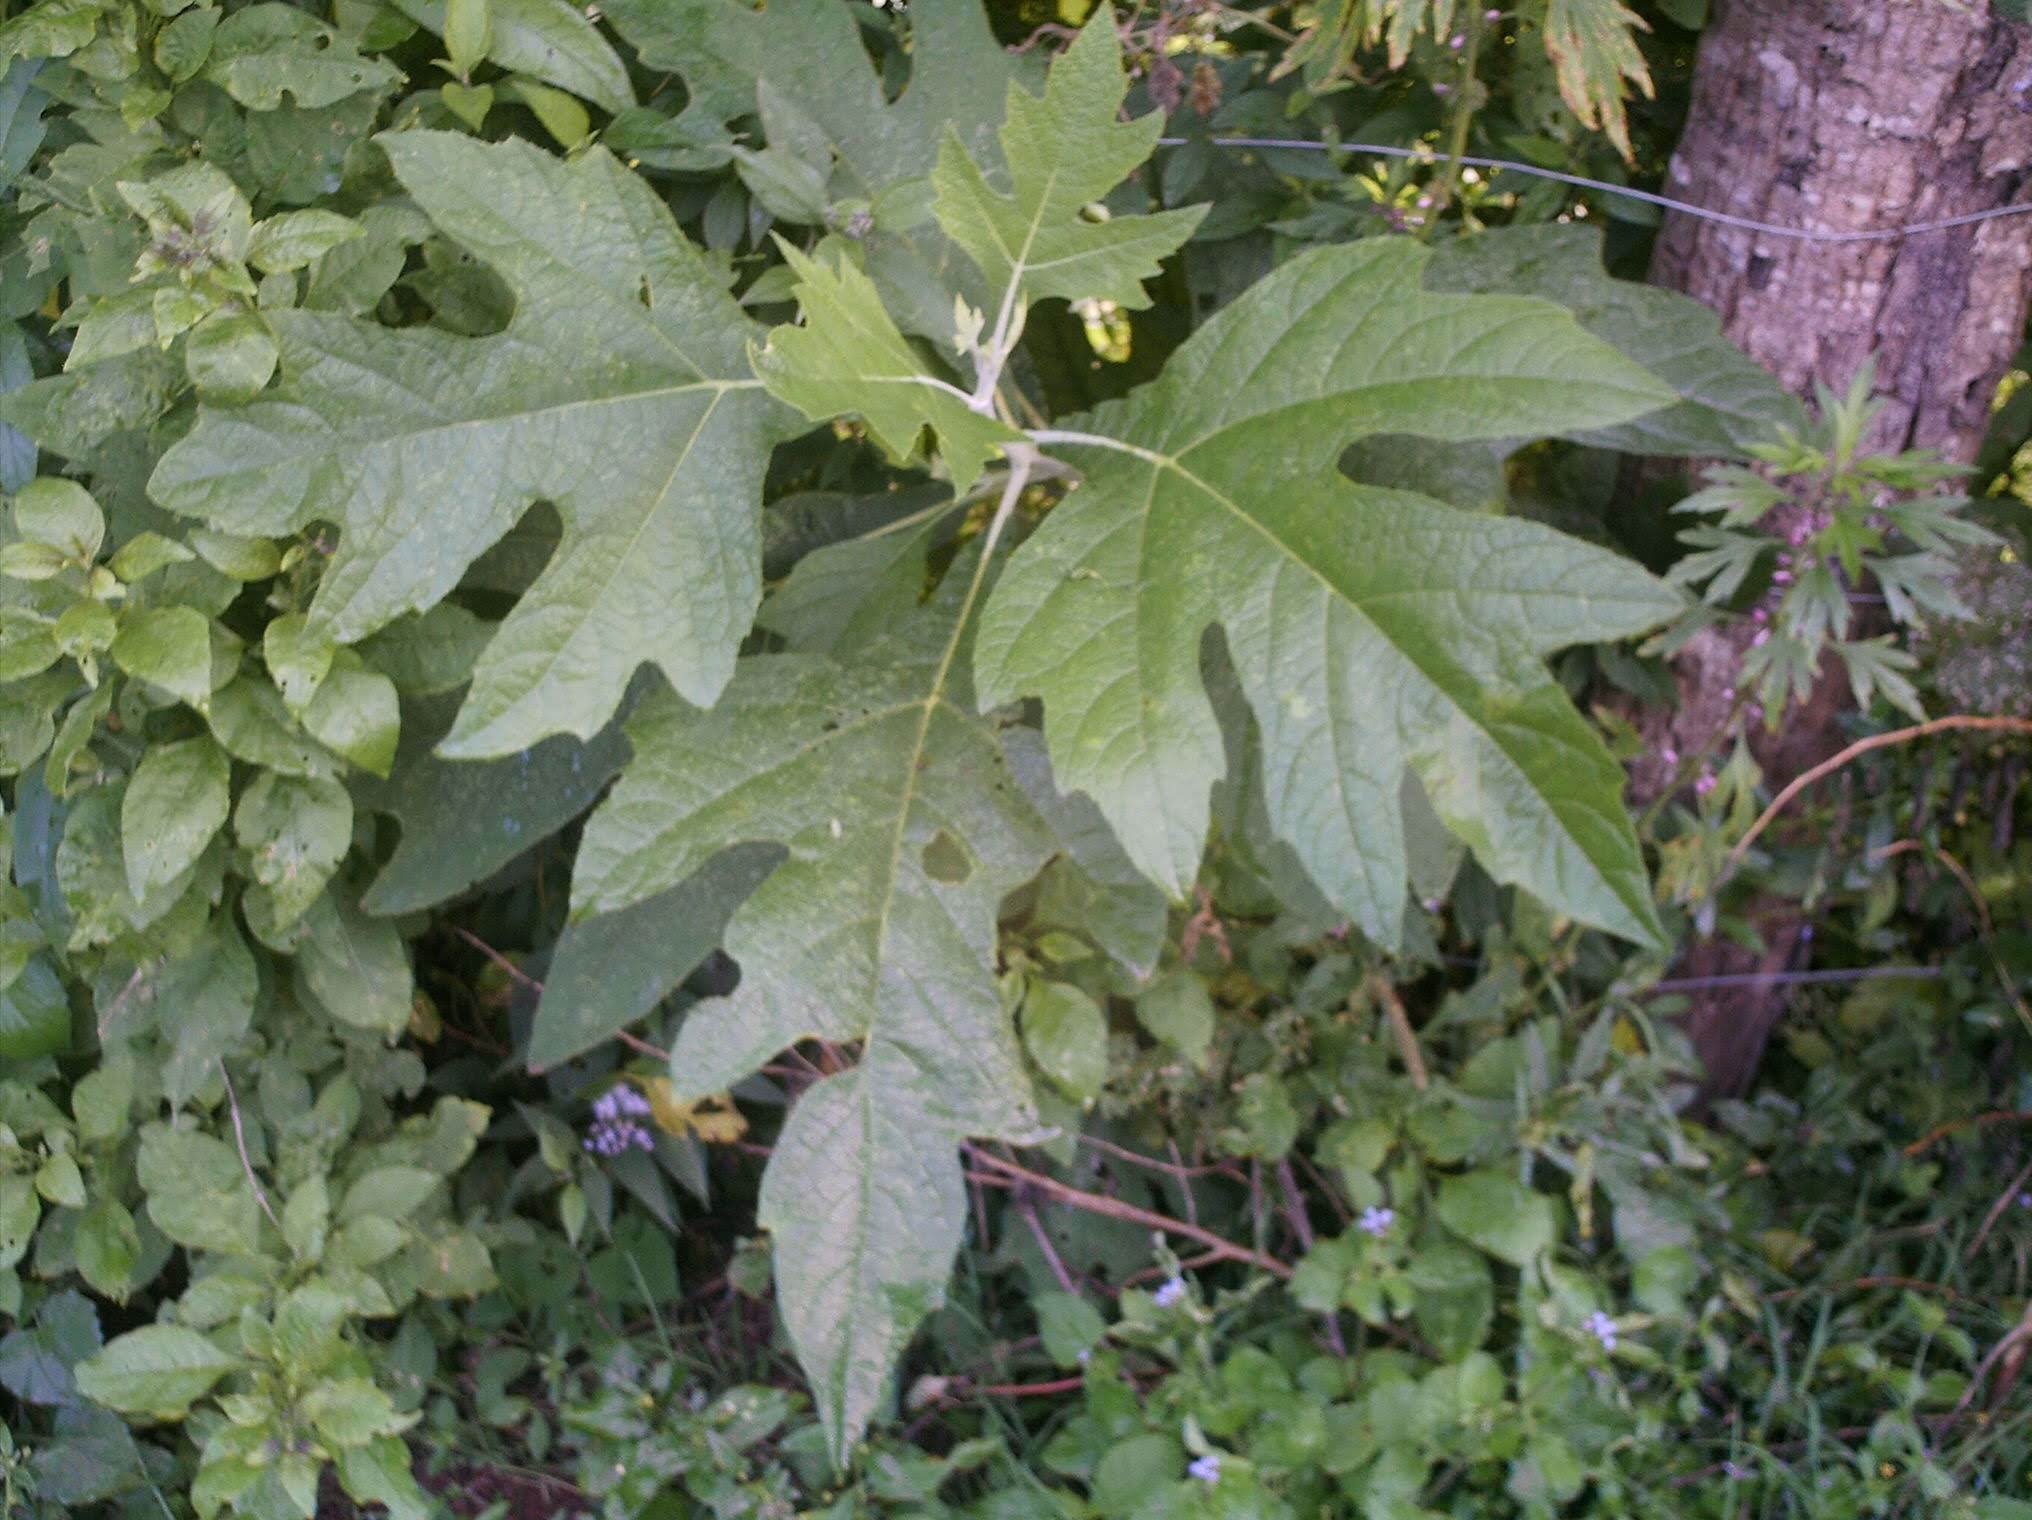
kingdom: Plantae
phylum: Tracheophyta
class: Magnoliopsida
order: Brassicales
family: Caricaceae
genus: Carica
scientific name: Carica papaya
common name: Papaya
